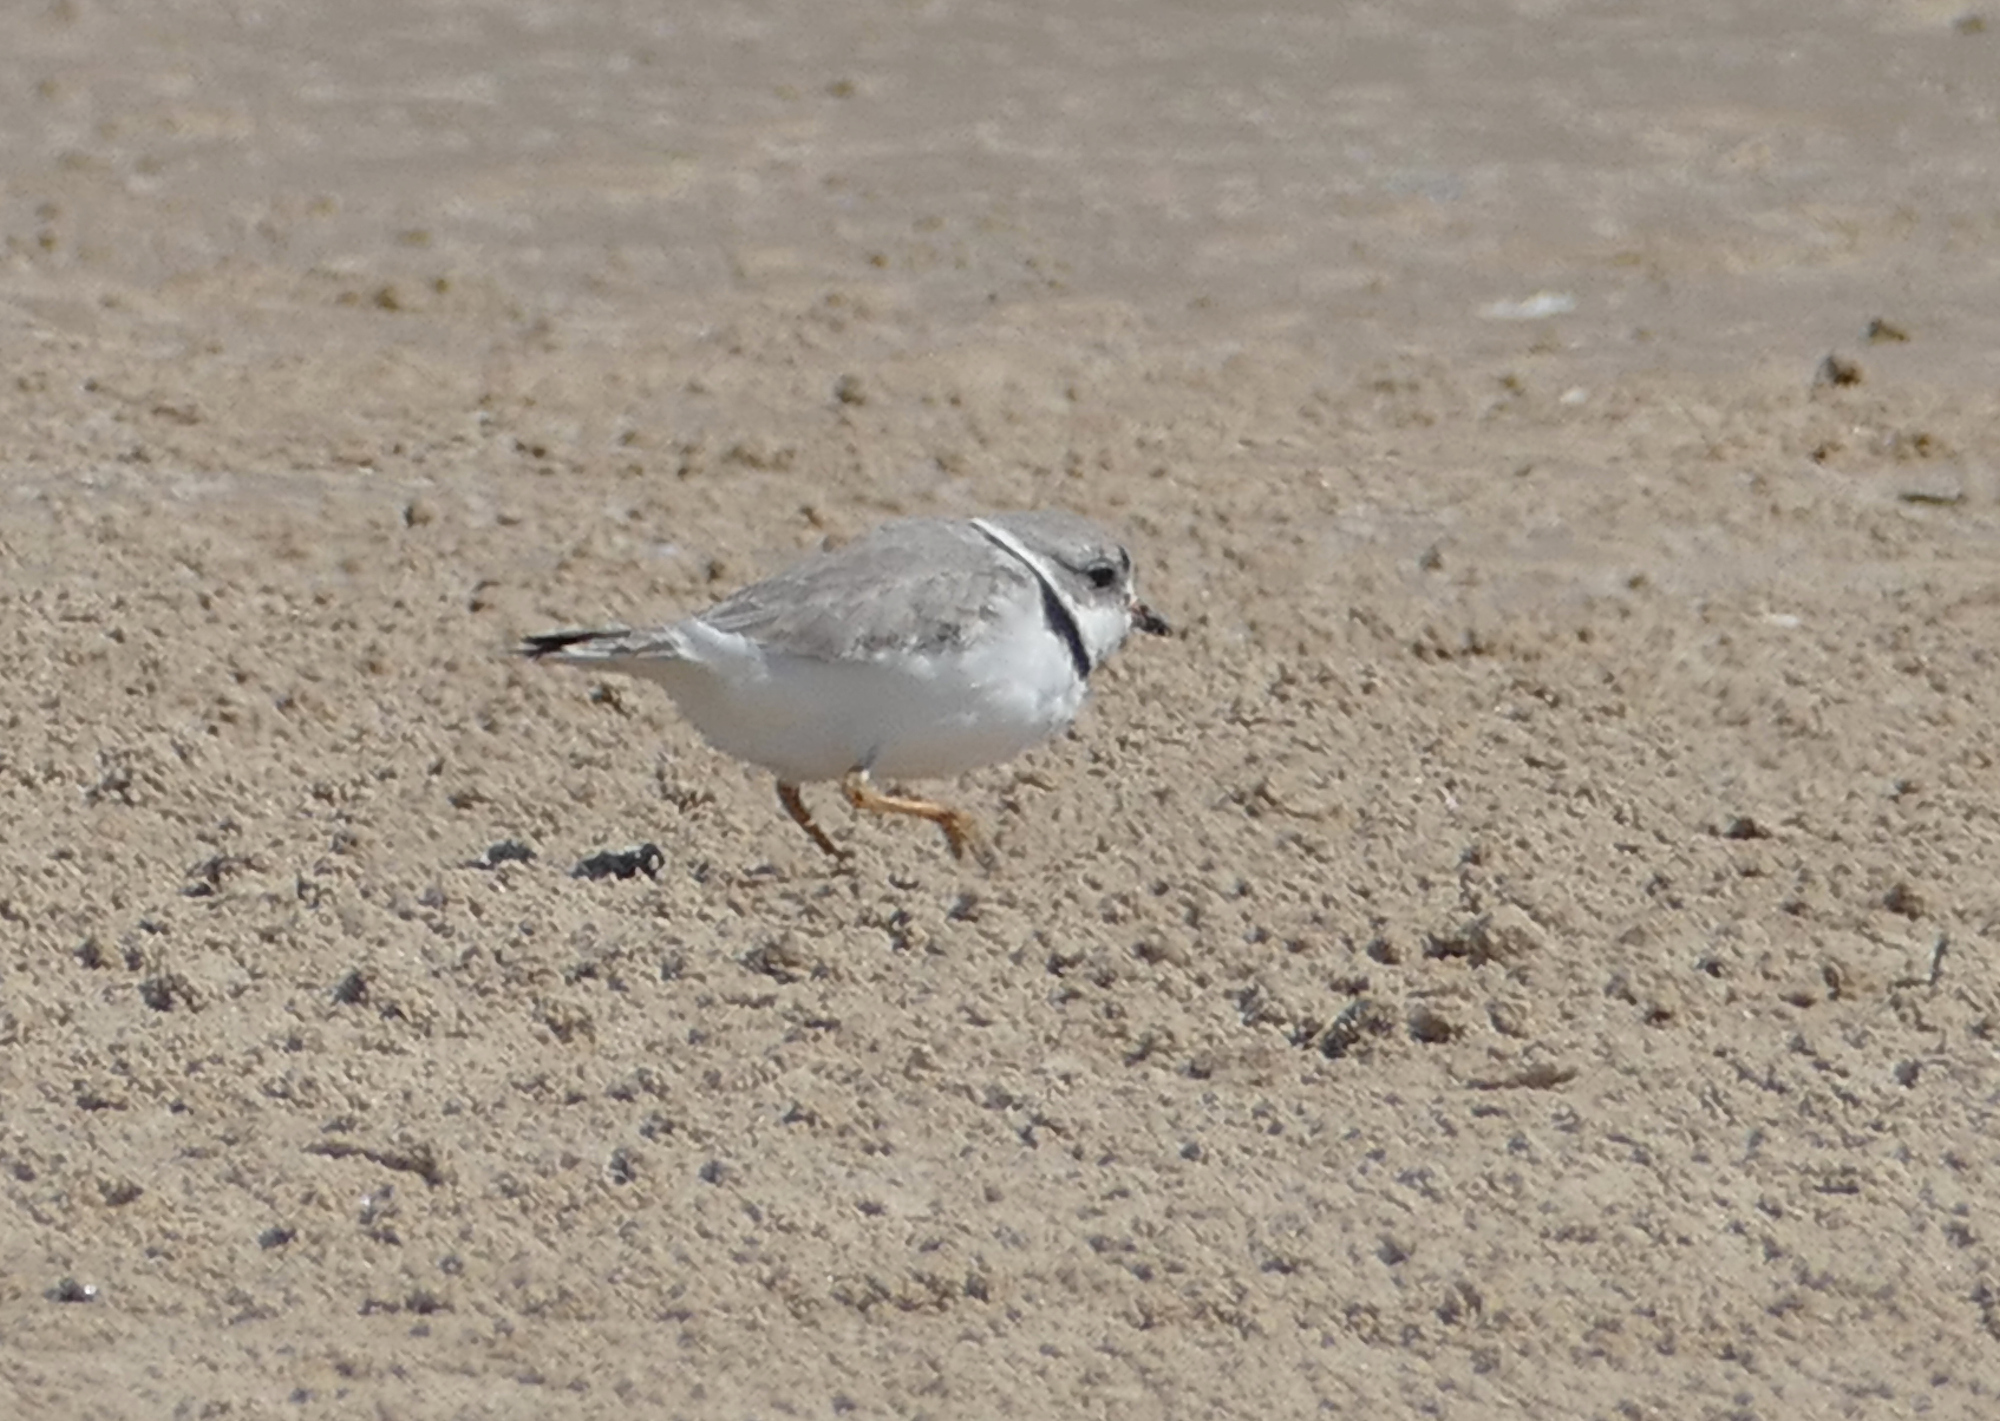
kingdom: Animalia
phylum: Chordata
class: Aves
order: Charadriiformes
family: Charadriidae
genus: Charadrius
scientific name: Charadrius melodus
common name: Piping plover
